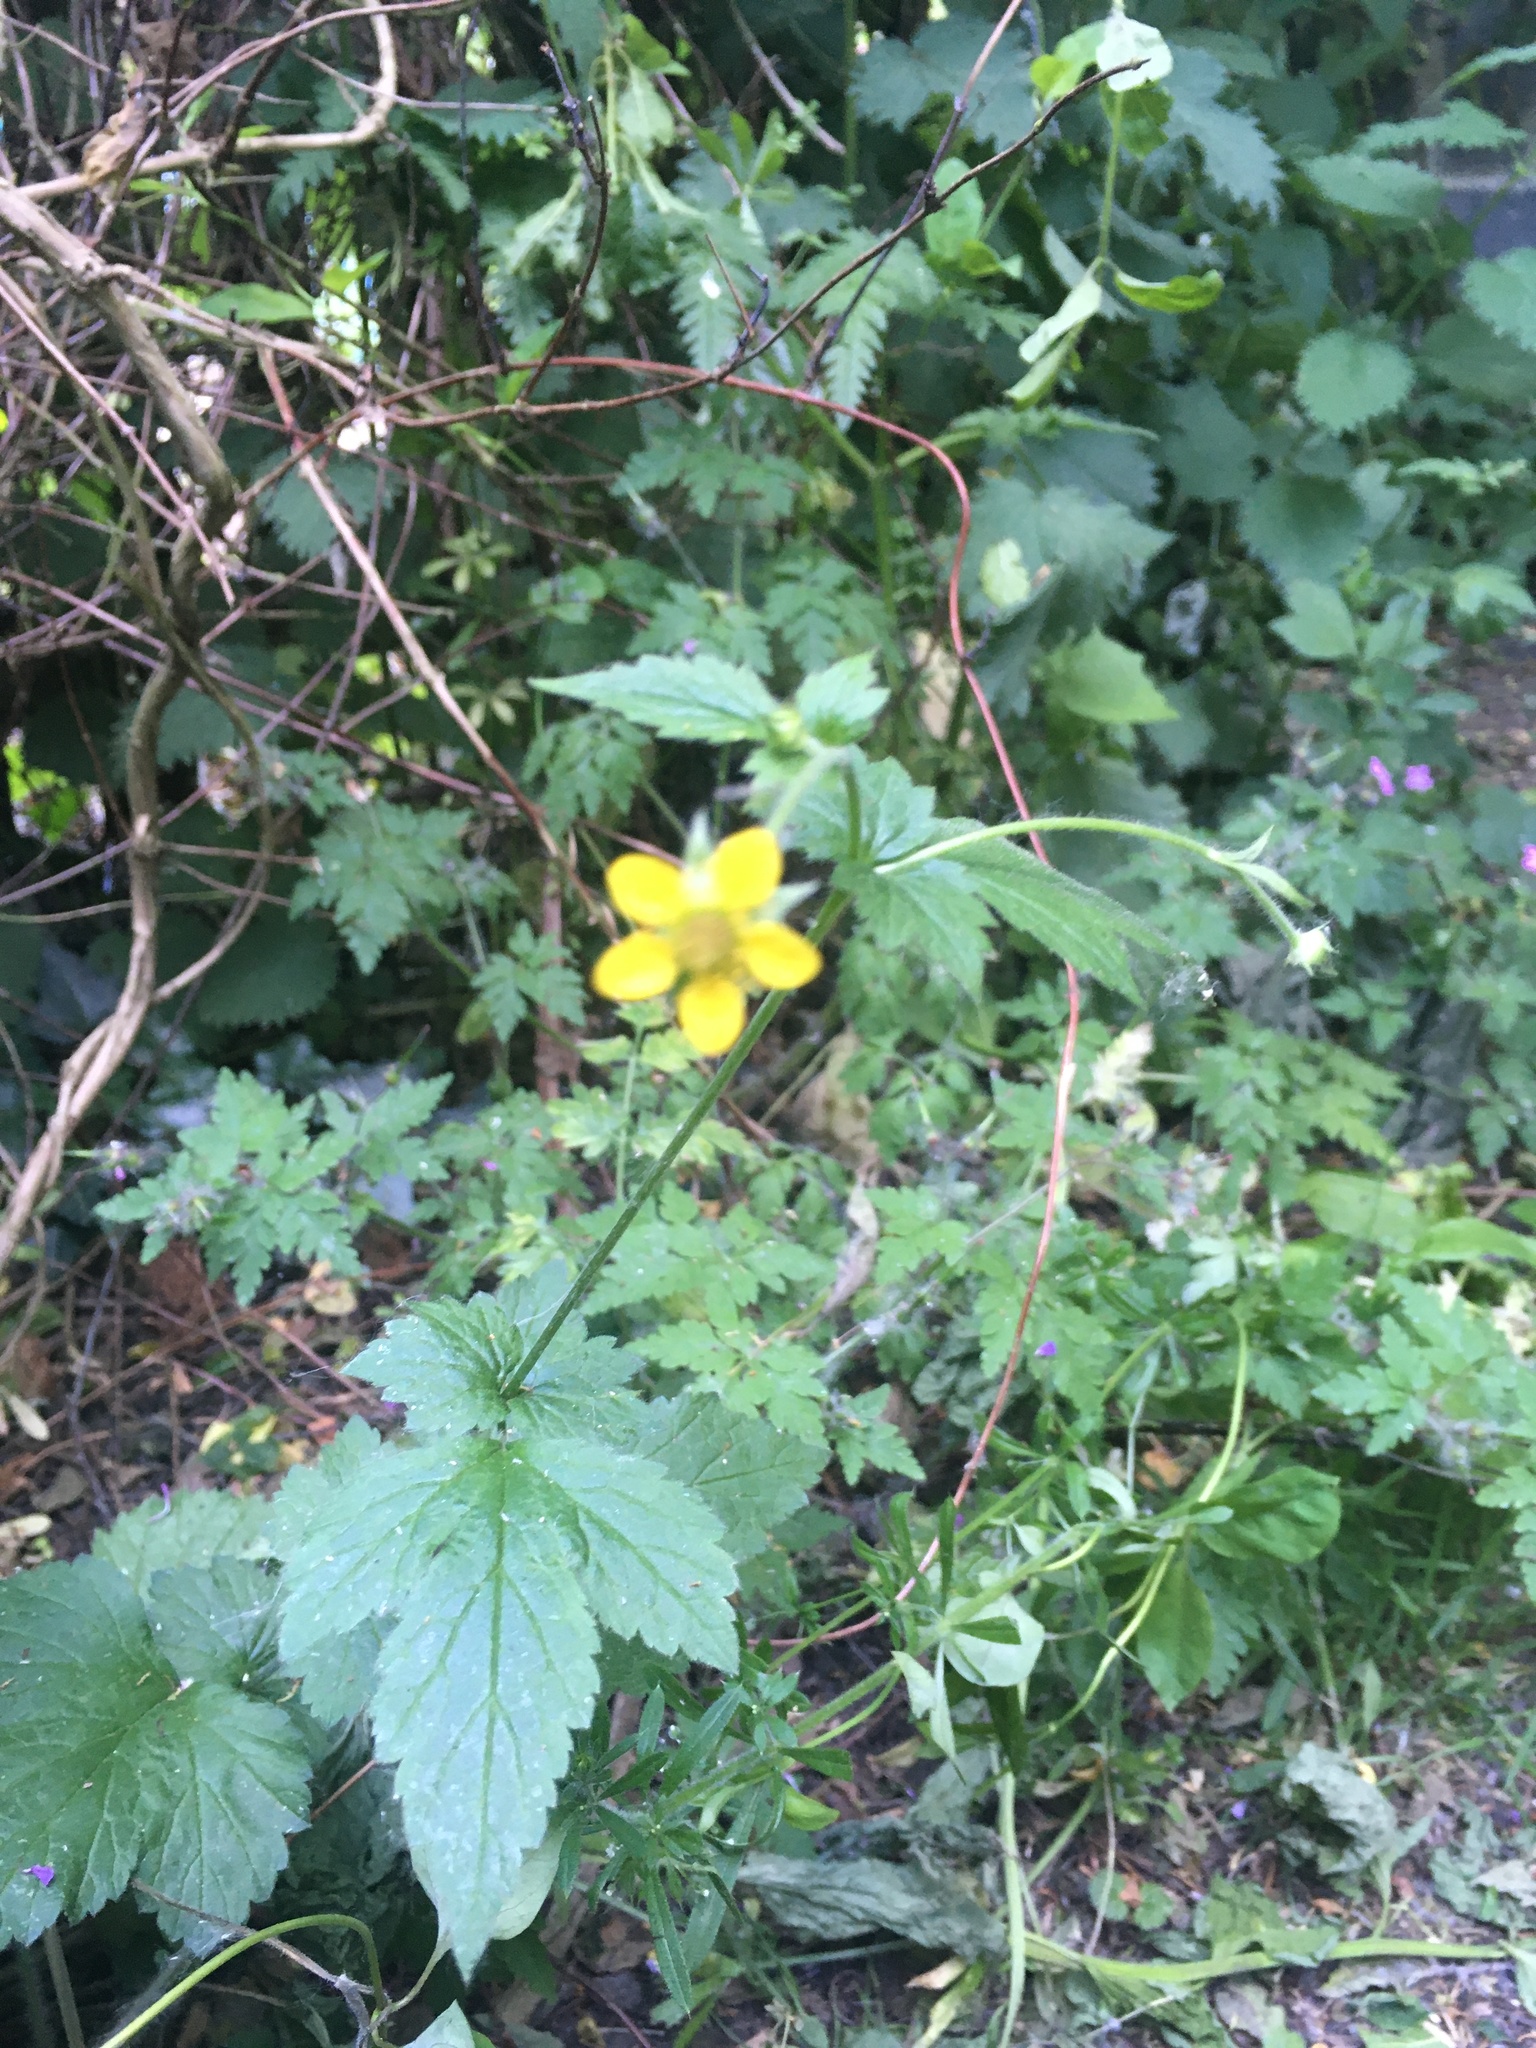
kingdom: Plantae
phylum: Tracheophyta
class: Magnoliopsida
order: Rosales
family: Rosaceae
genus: Geum
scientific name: Geum urbanum
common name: Wood avens
